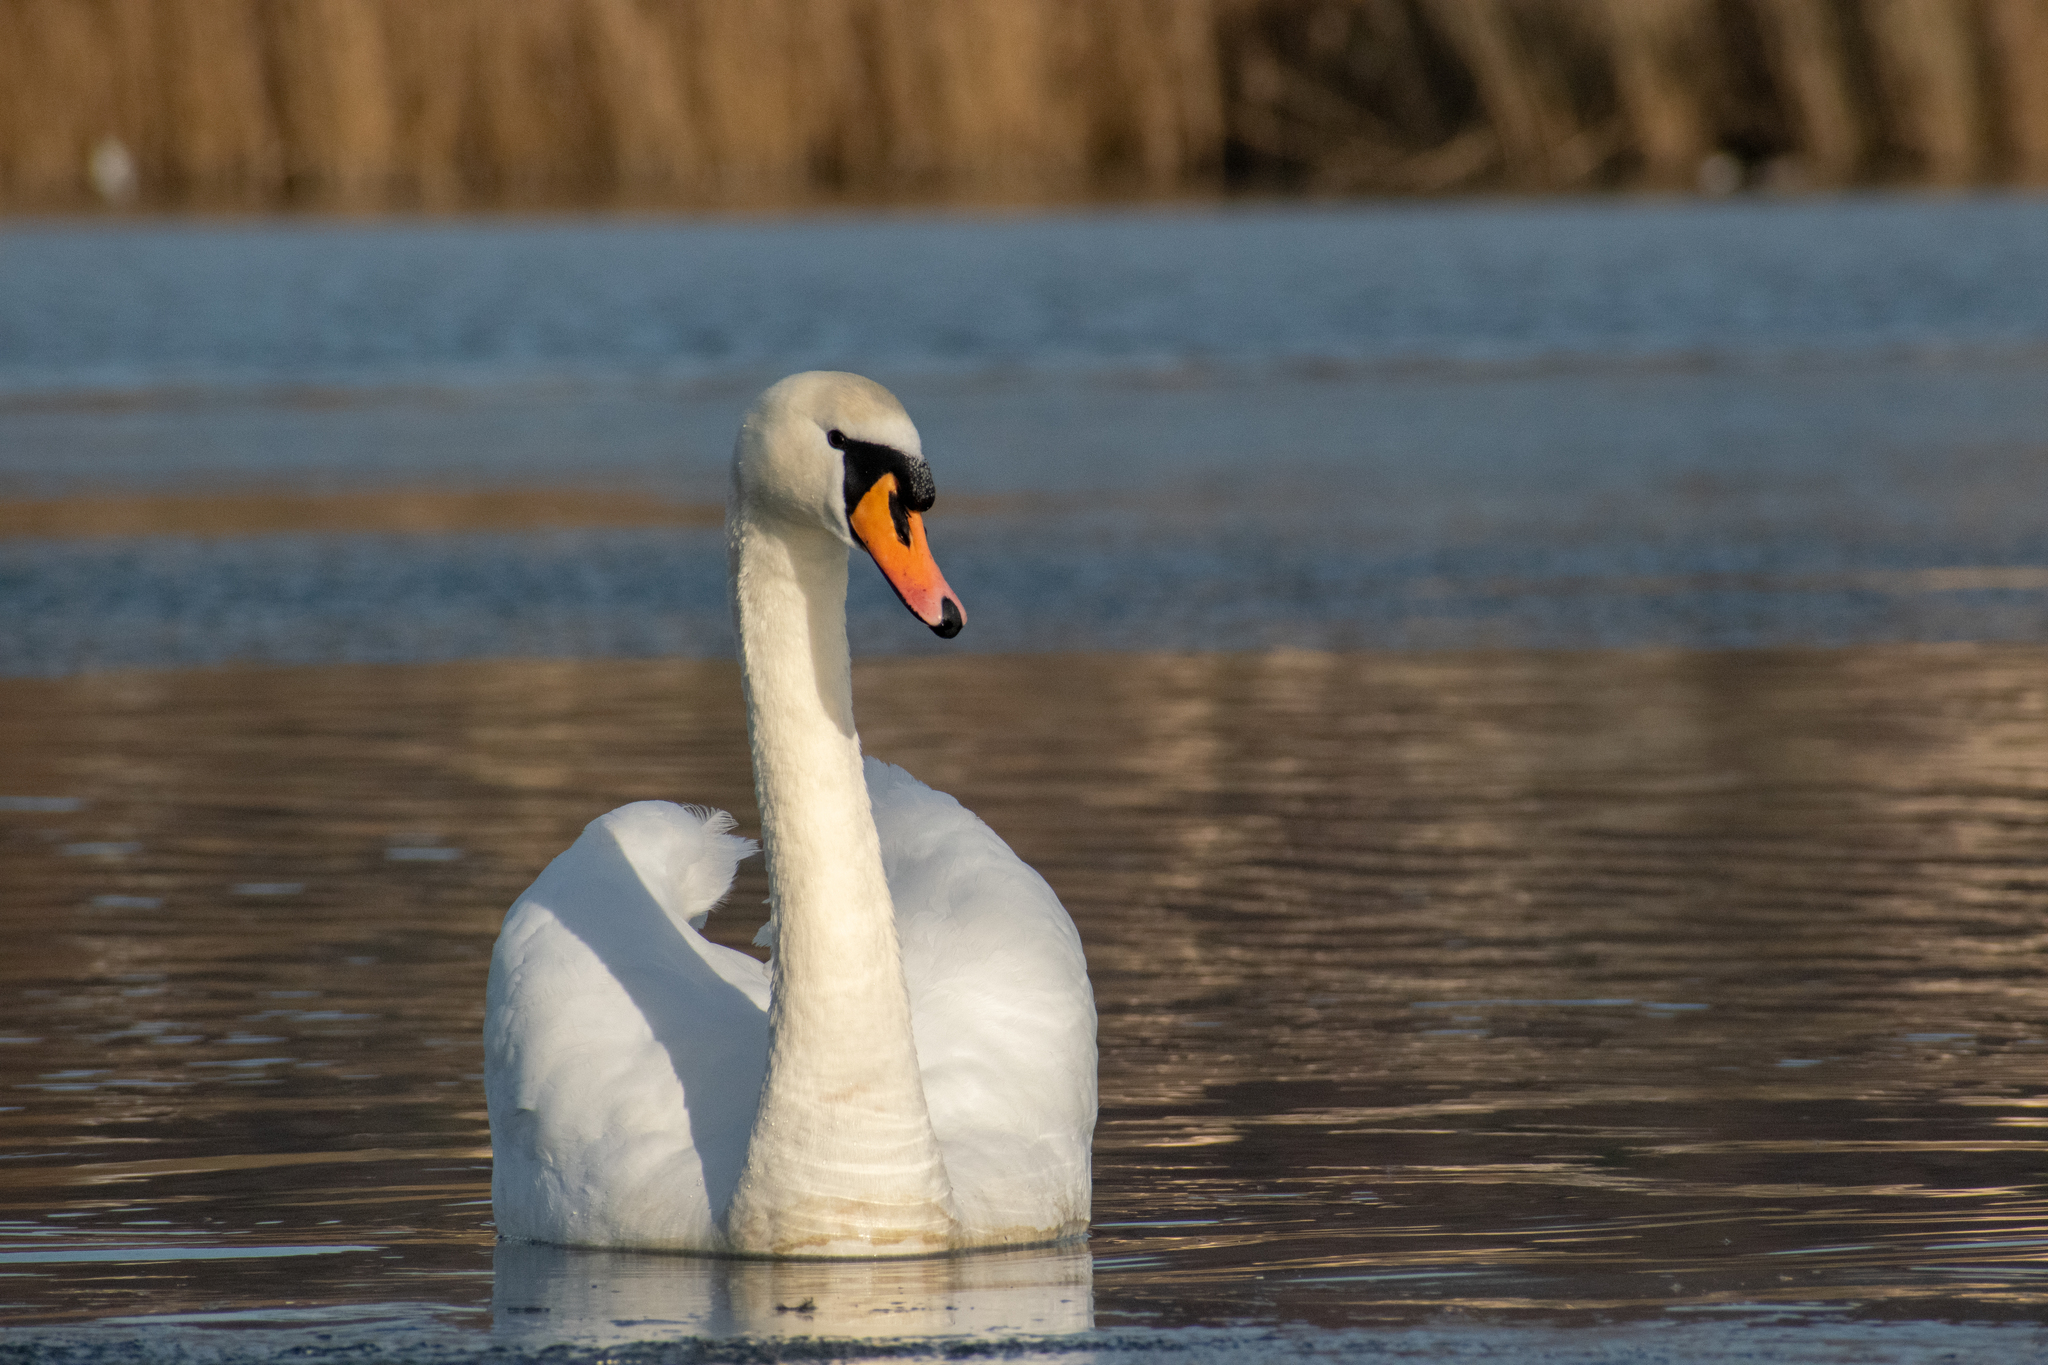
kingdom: Animalia
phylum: Chordata
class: Aves
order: Anseriformes
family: Anatidae
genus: Cygnus
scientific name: Cygnus olor
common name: Mute swan
